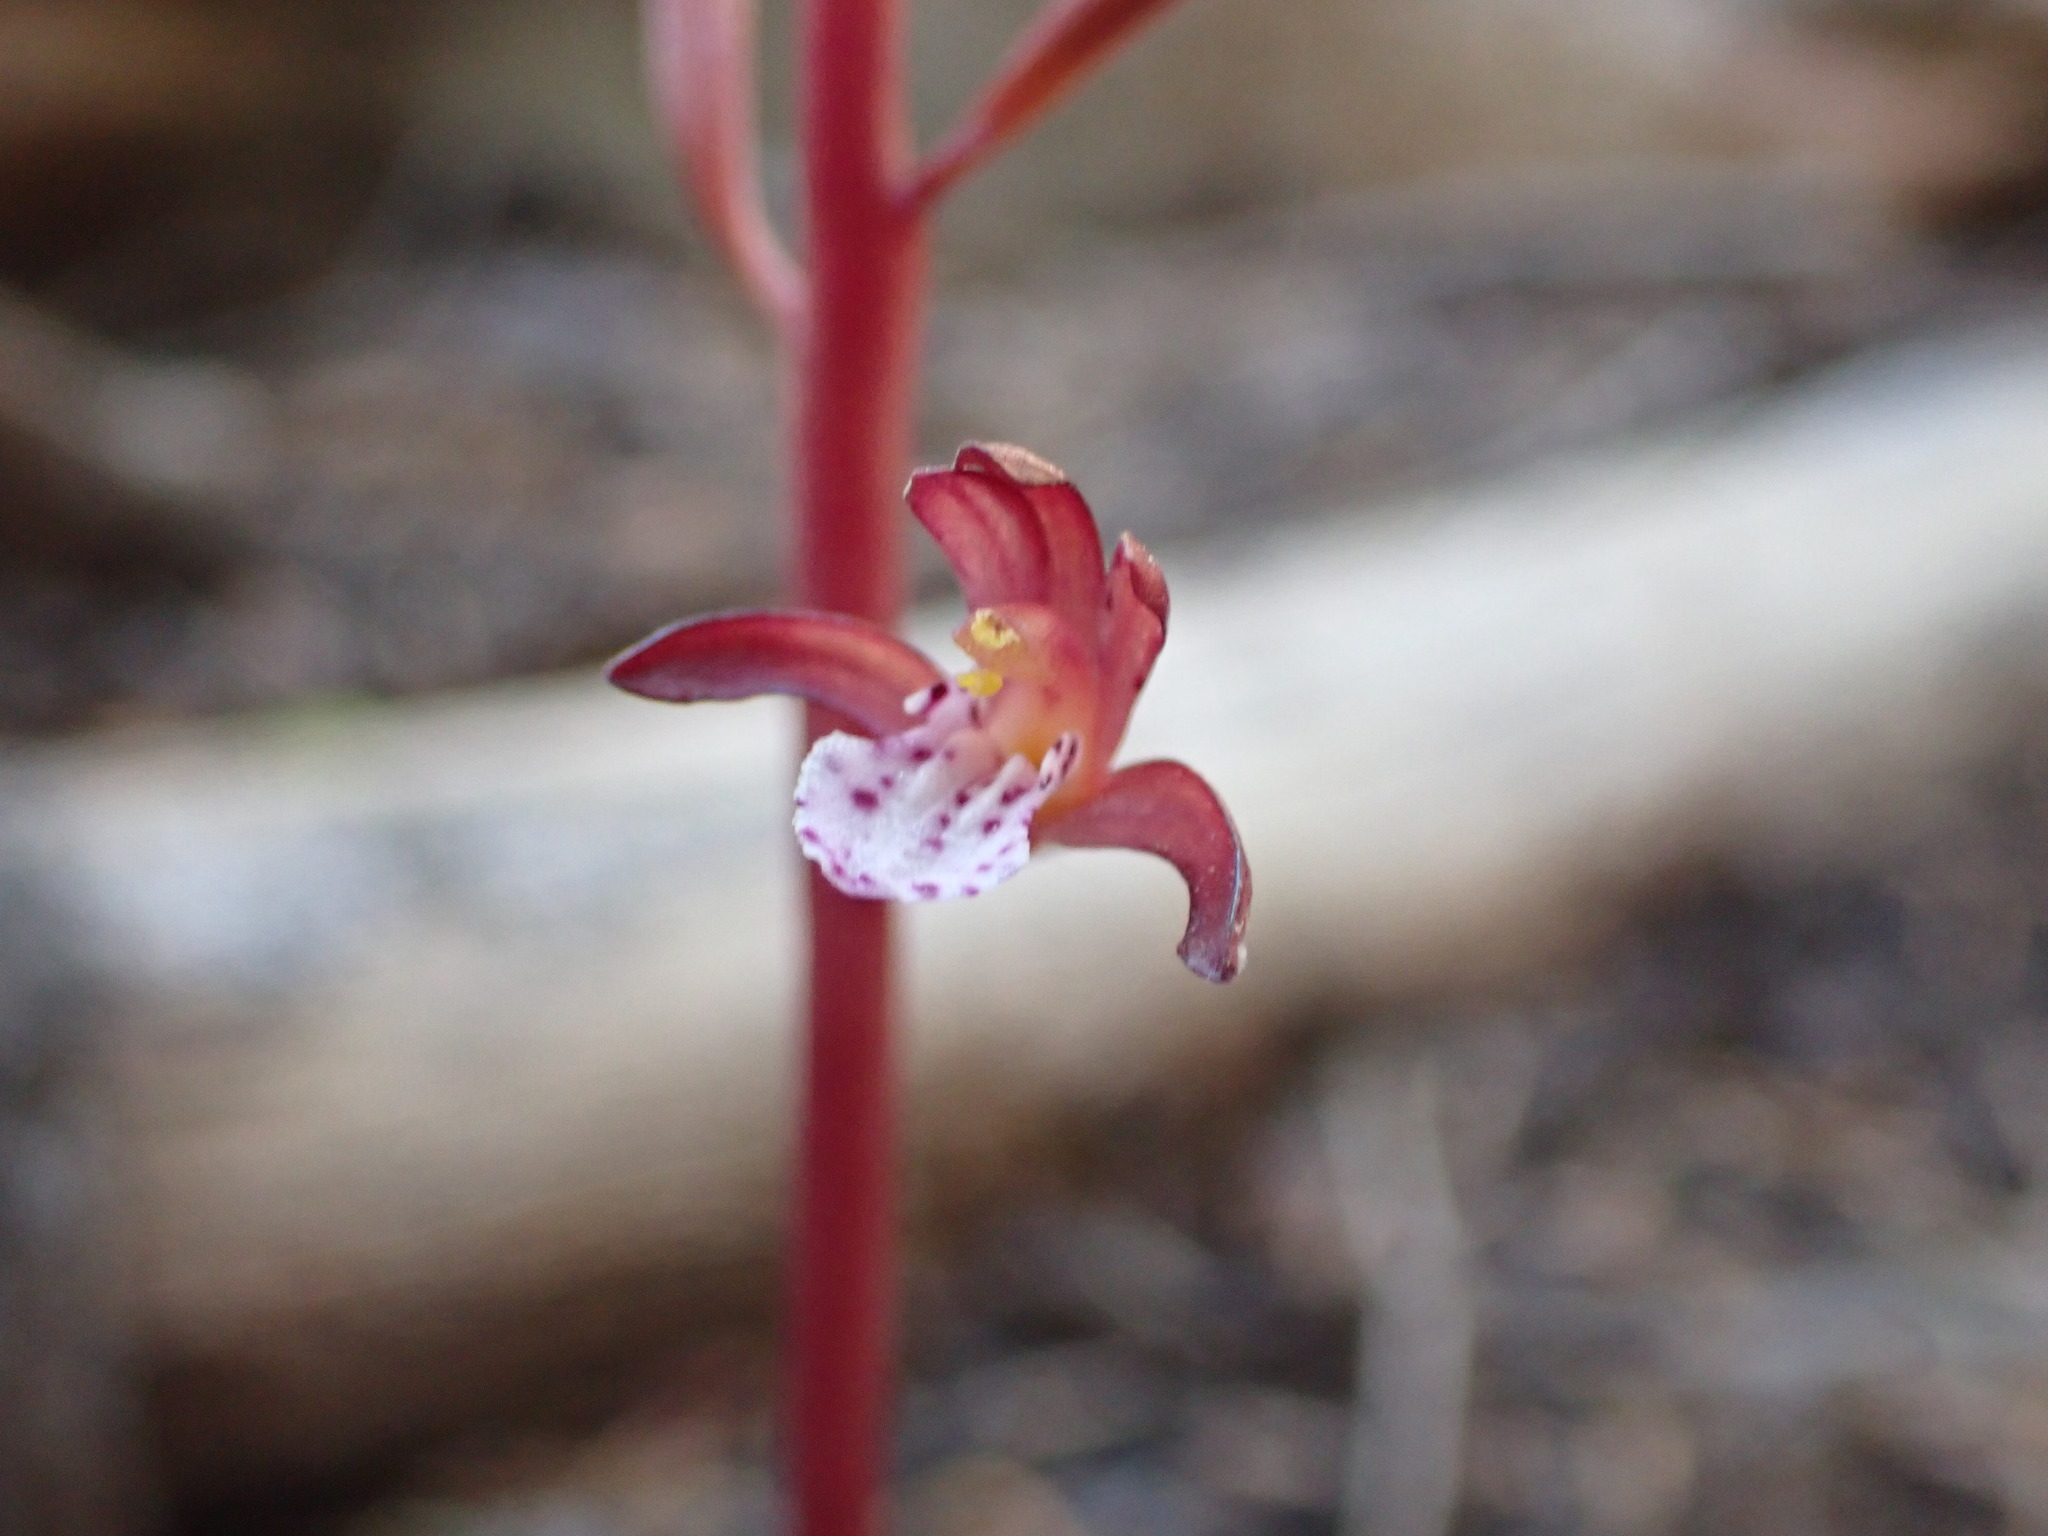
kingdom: Plantae
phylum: Tracheophyta
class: Liliopsida
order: Asparagales
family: Orchidaceae
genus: Corallorhiza
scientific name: Corallorhiza maculata
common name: Spotted coralroot
